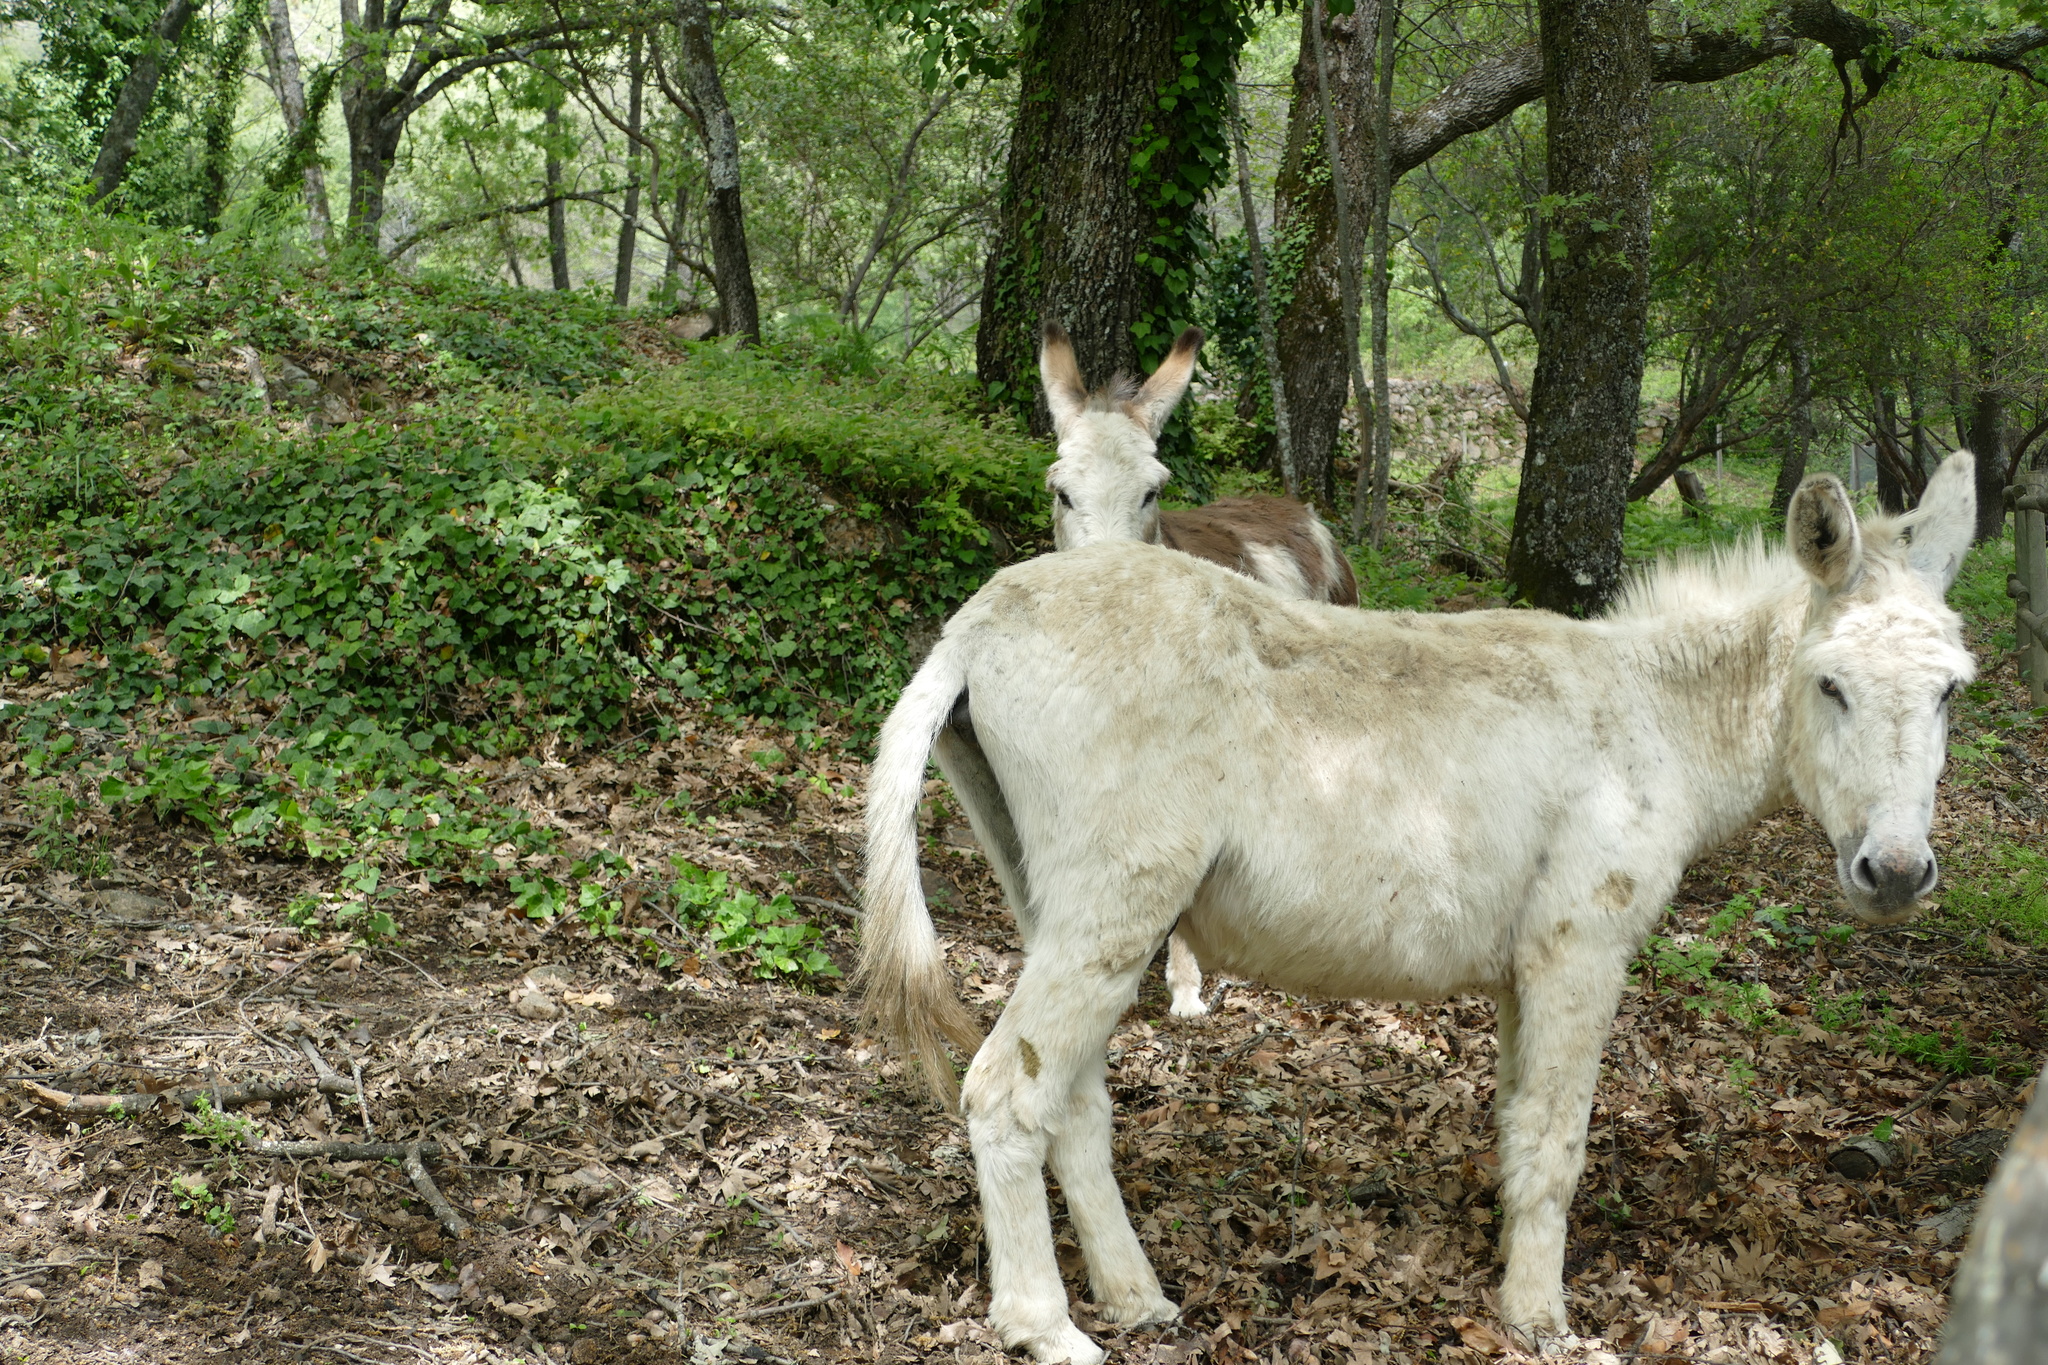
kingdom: Animalia
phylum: Chordata
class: Mammalia
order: Perissodactyla
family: Equidae
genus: Equus
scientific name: Equus asinus
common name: Ass
